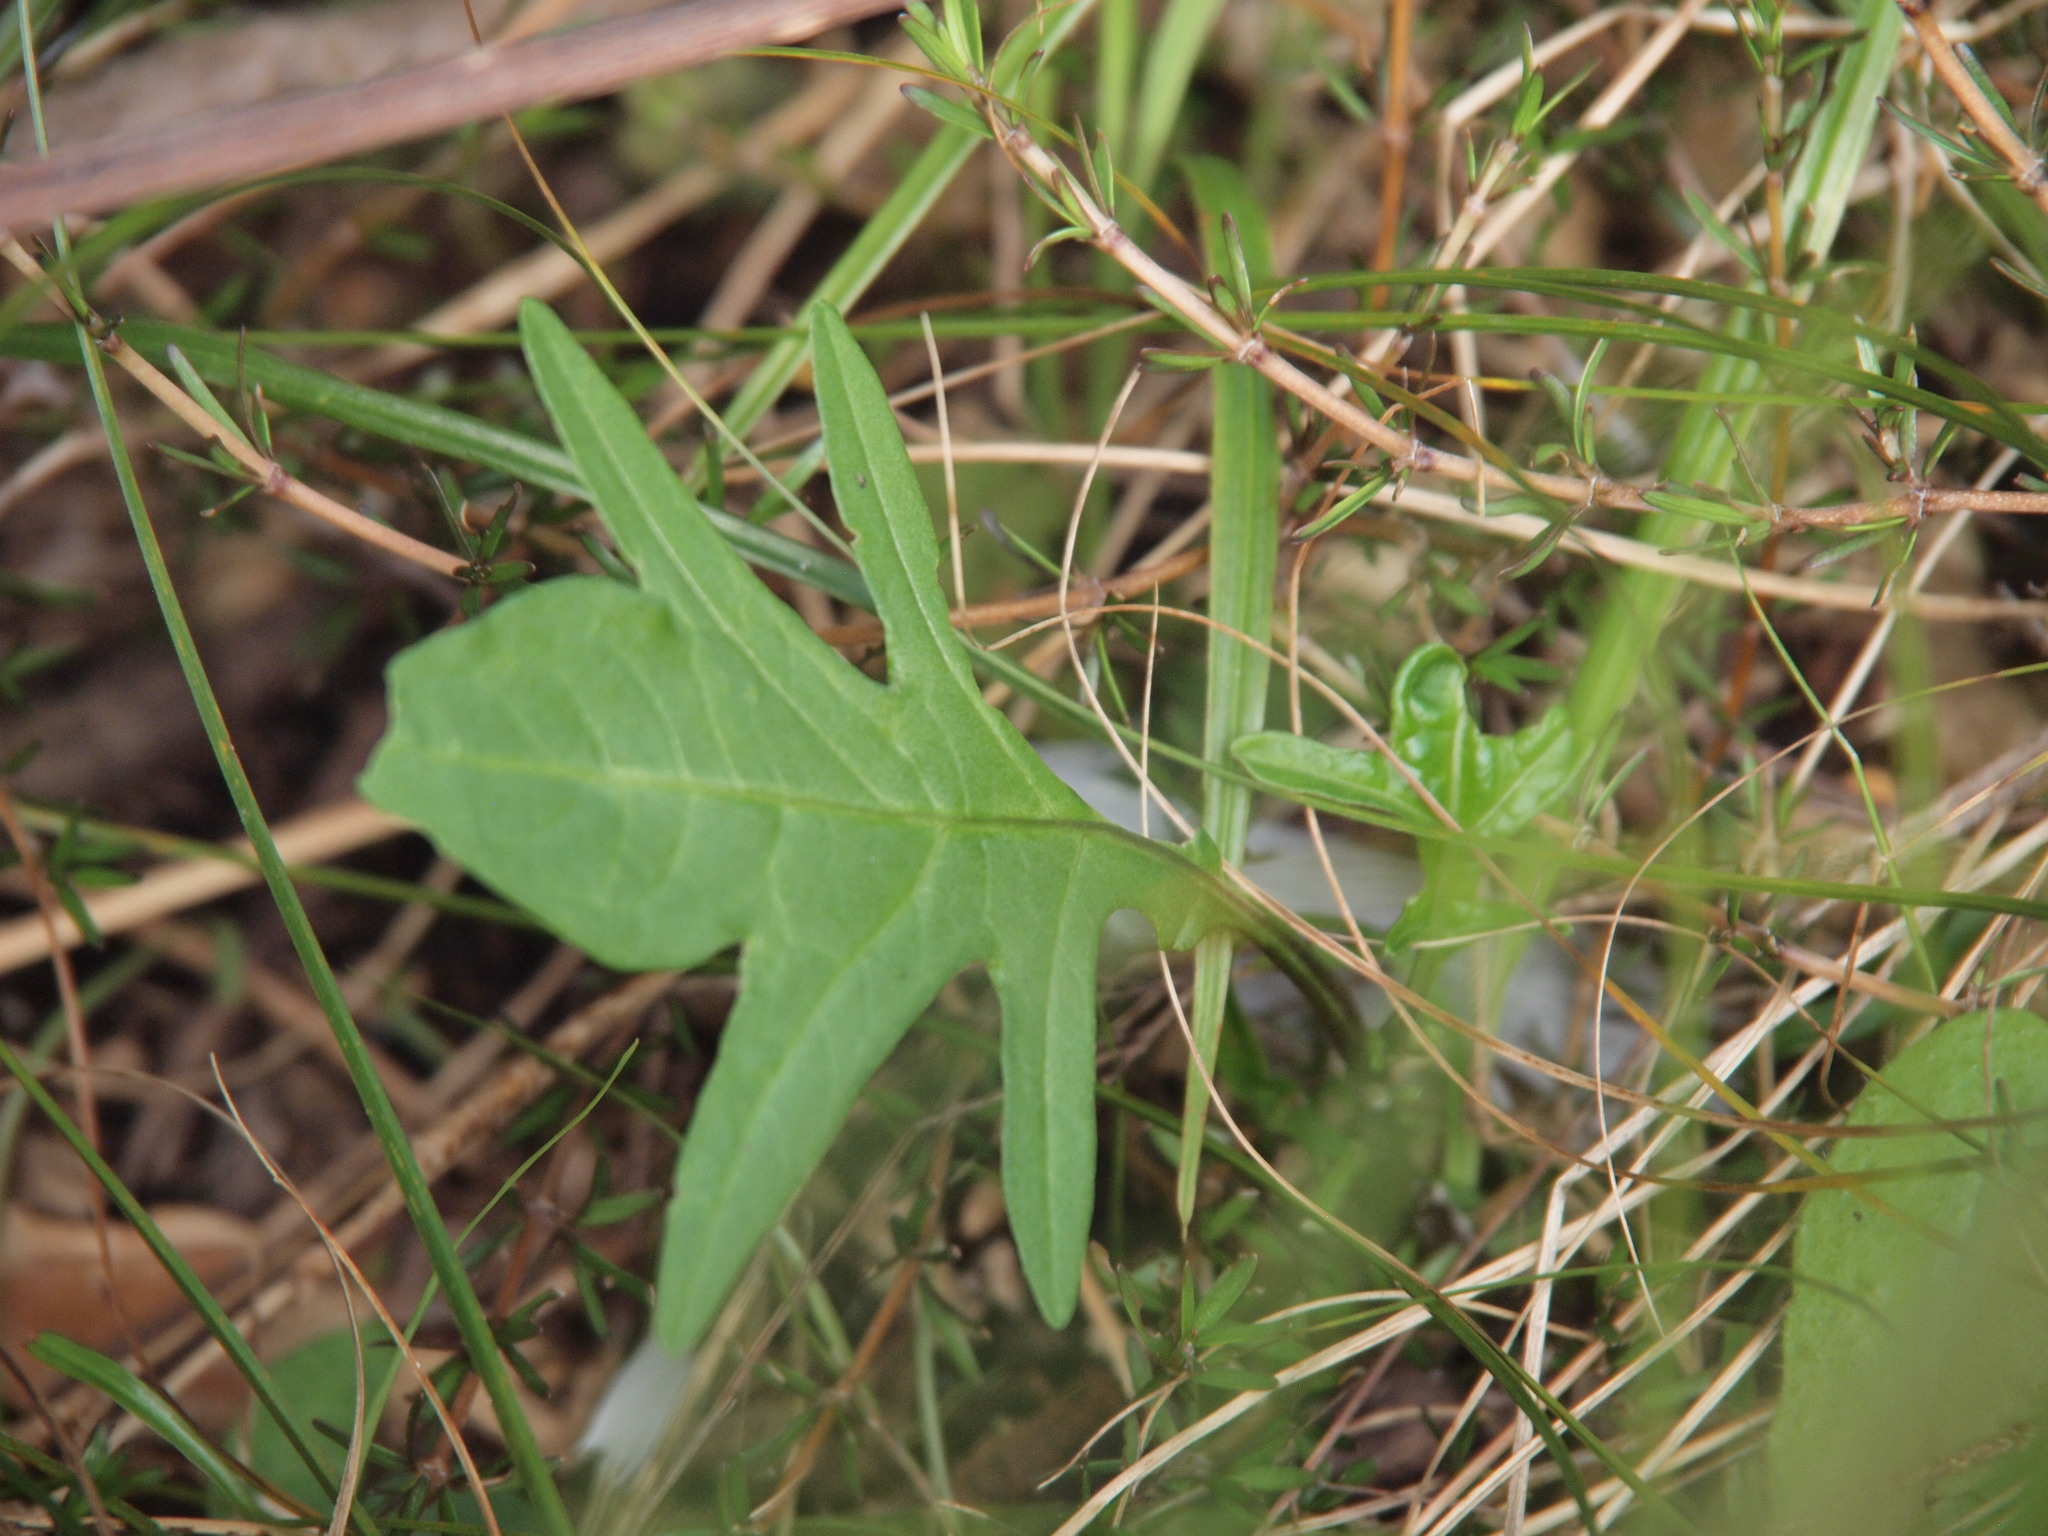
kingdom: Plantae
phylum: Tracheophyta
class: Magnoliopsida
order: Solanales
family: Solanaceae
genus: Solanum
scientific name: Solanum laciniatum
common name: Kangaroo-apple
